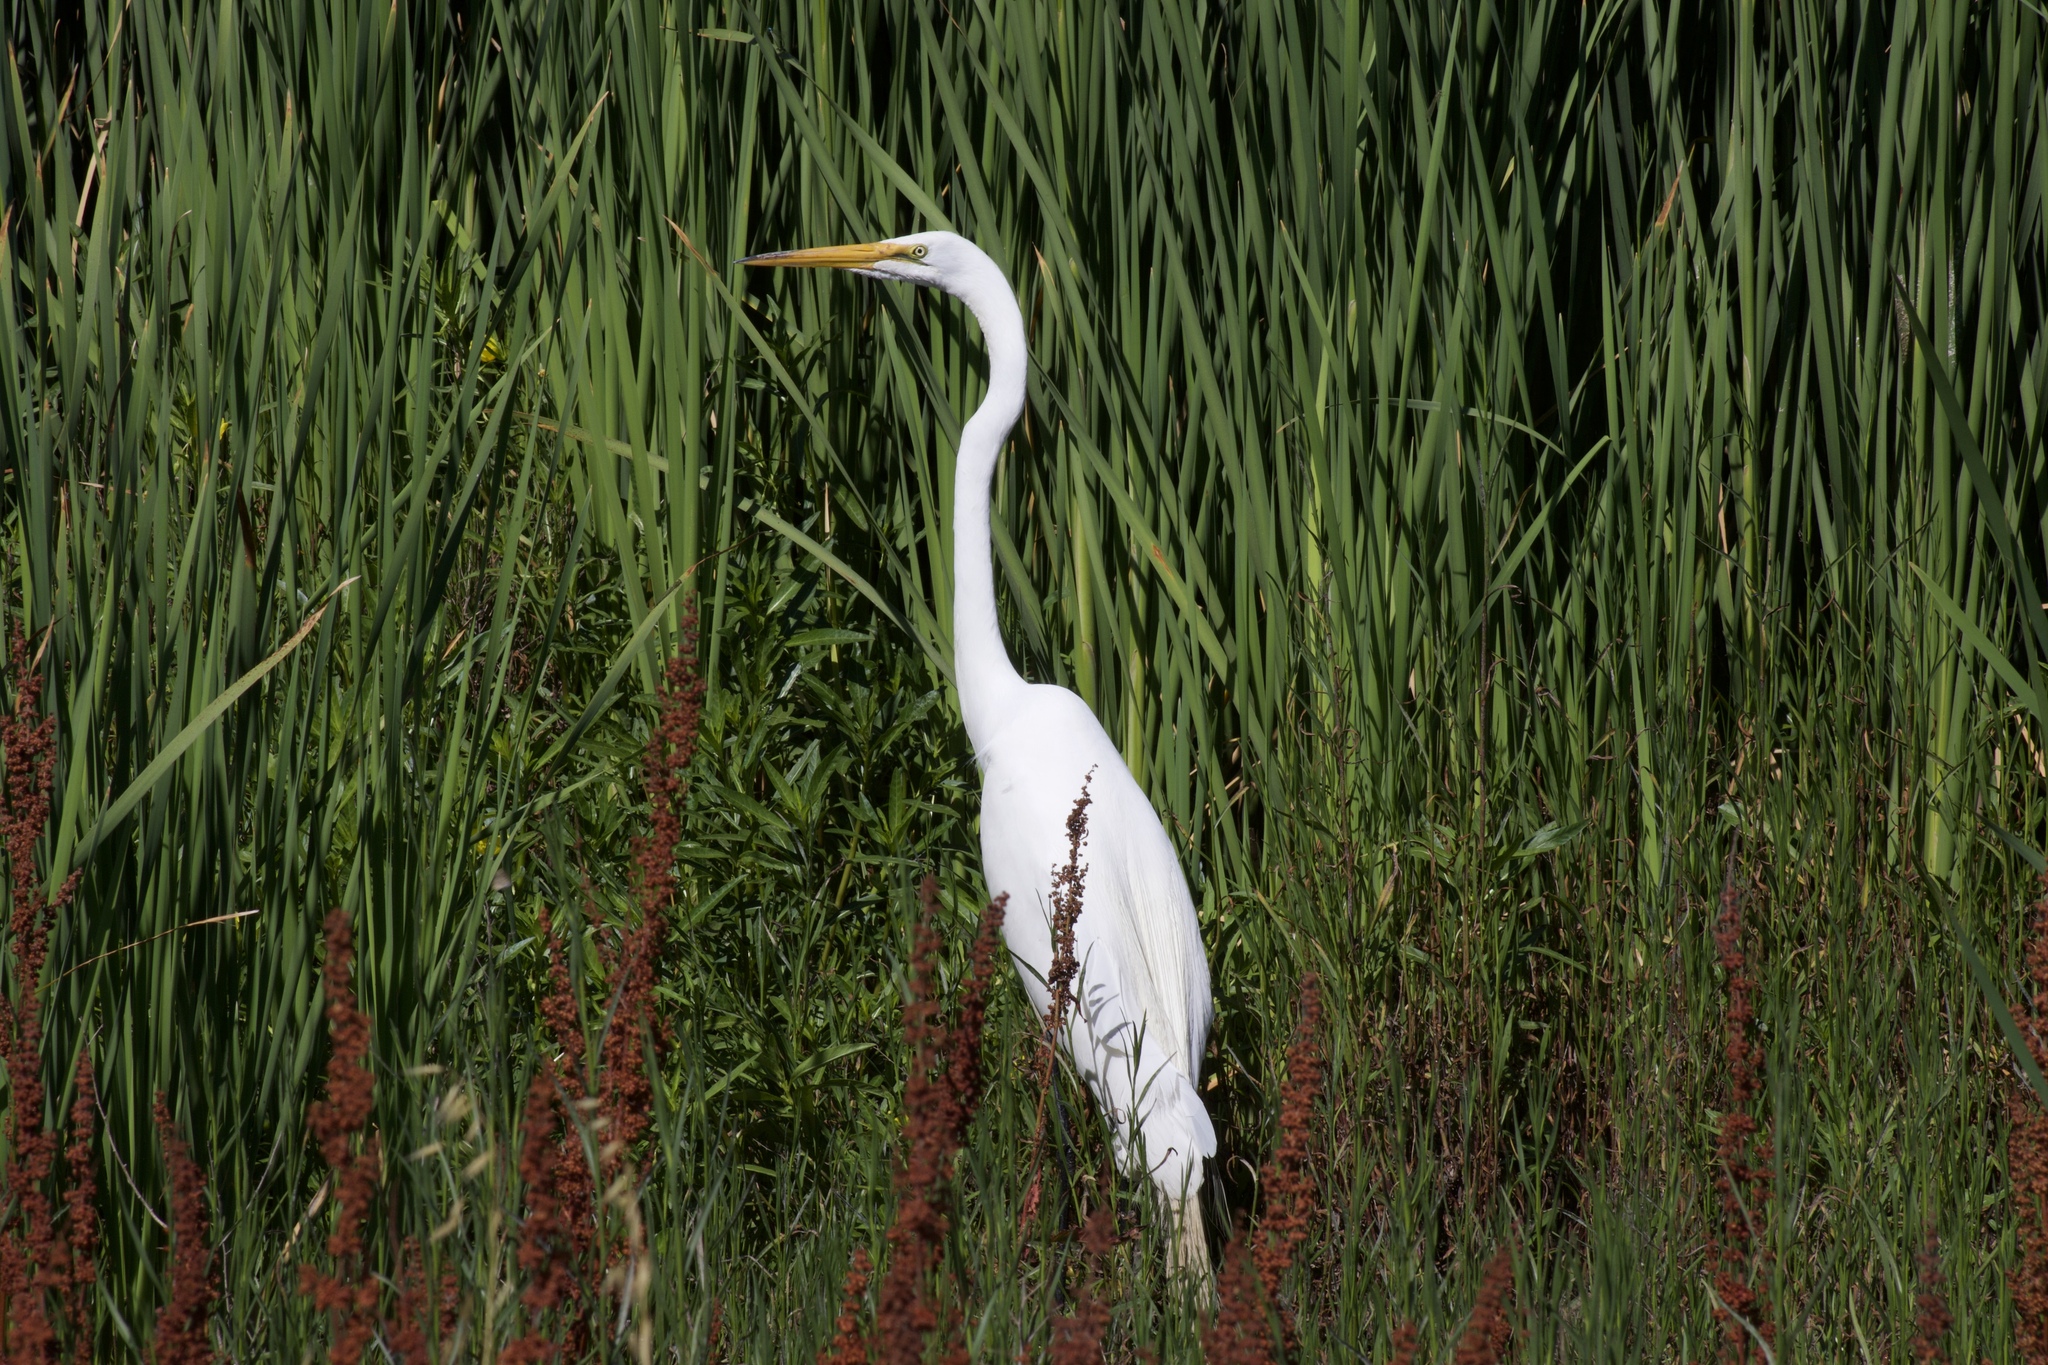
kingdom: Animalia
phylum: Chordata
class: Aves
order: Pelecaniformes
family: Ardeidae
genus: Ardea
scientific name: Ardea alba
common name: Great egret
